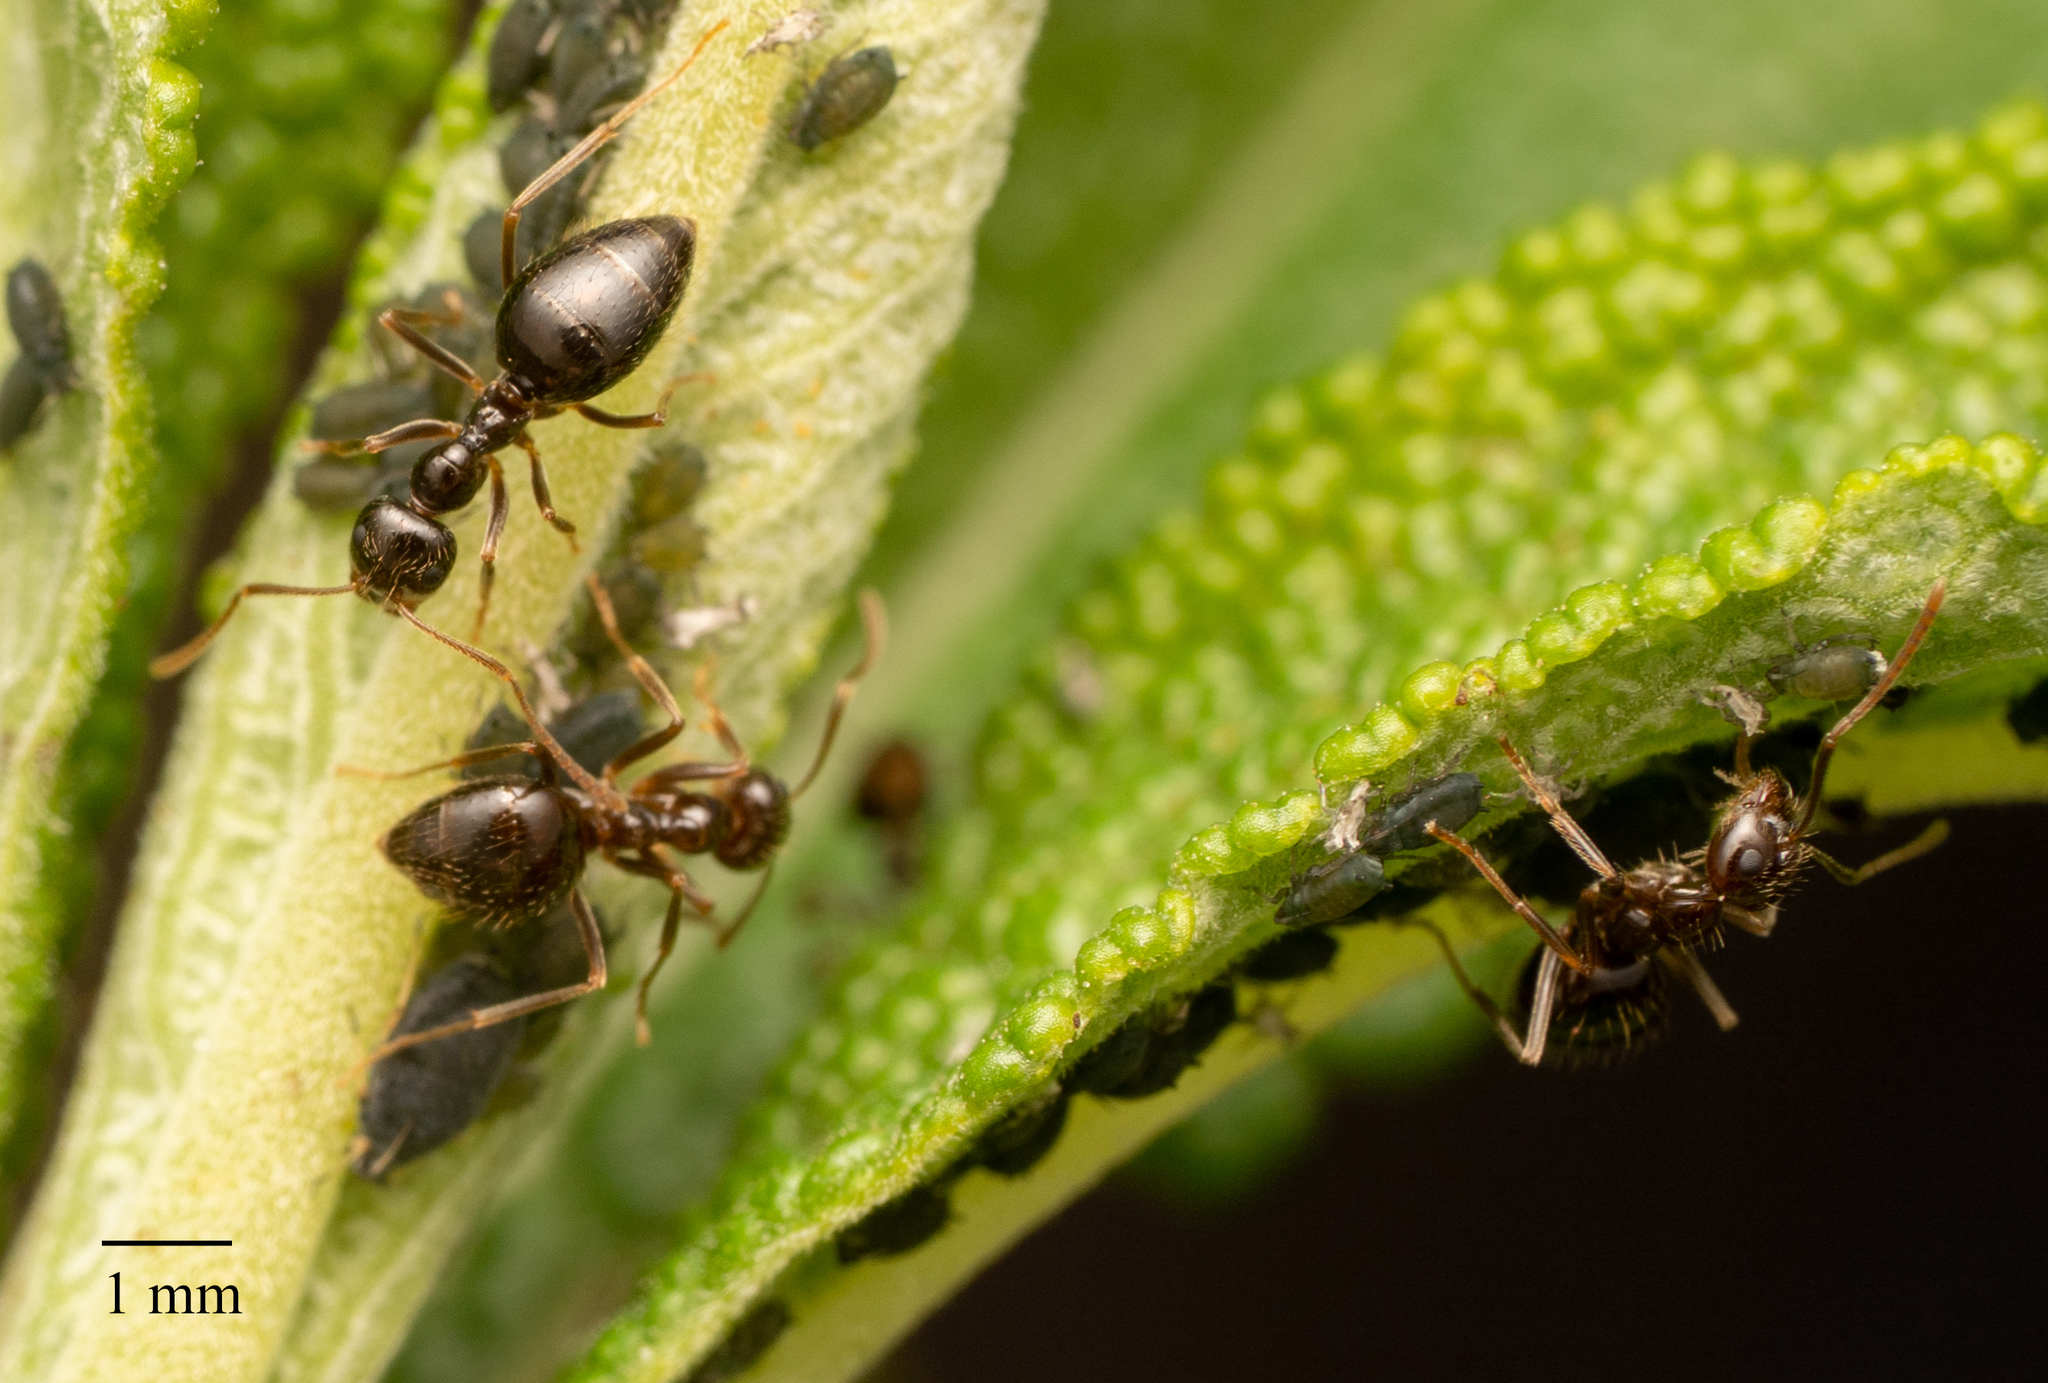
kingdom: Animalia
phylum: Arthropoda
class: Insecta
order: Hymenoptera
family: Formicidae
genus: Prenolepis
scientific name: Prenolepis imparis
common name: Small honey ant
